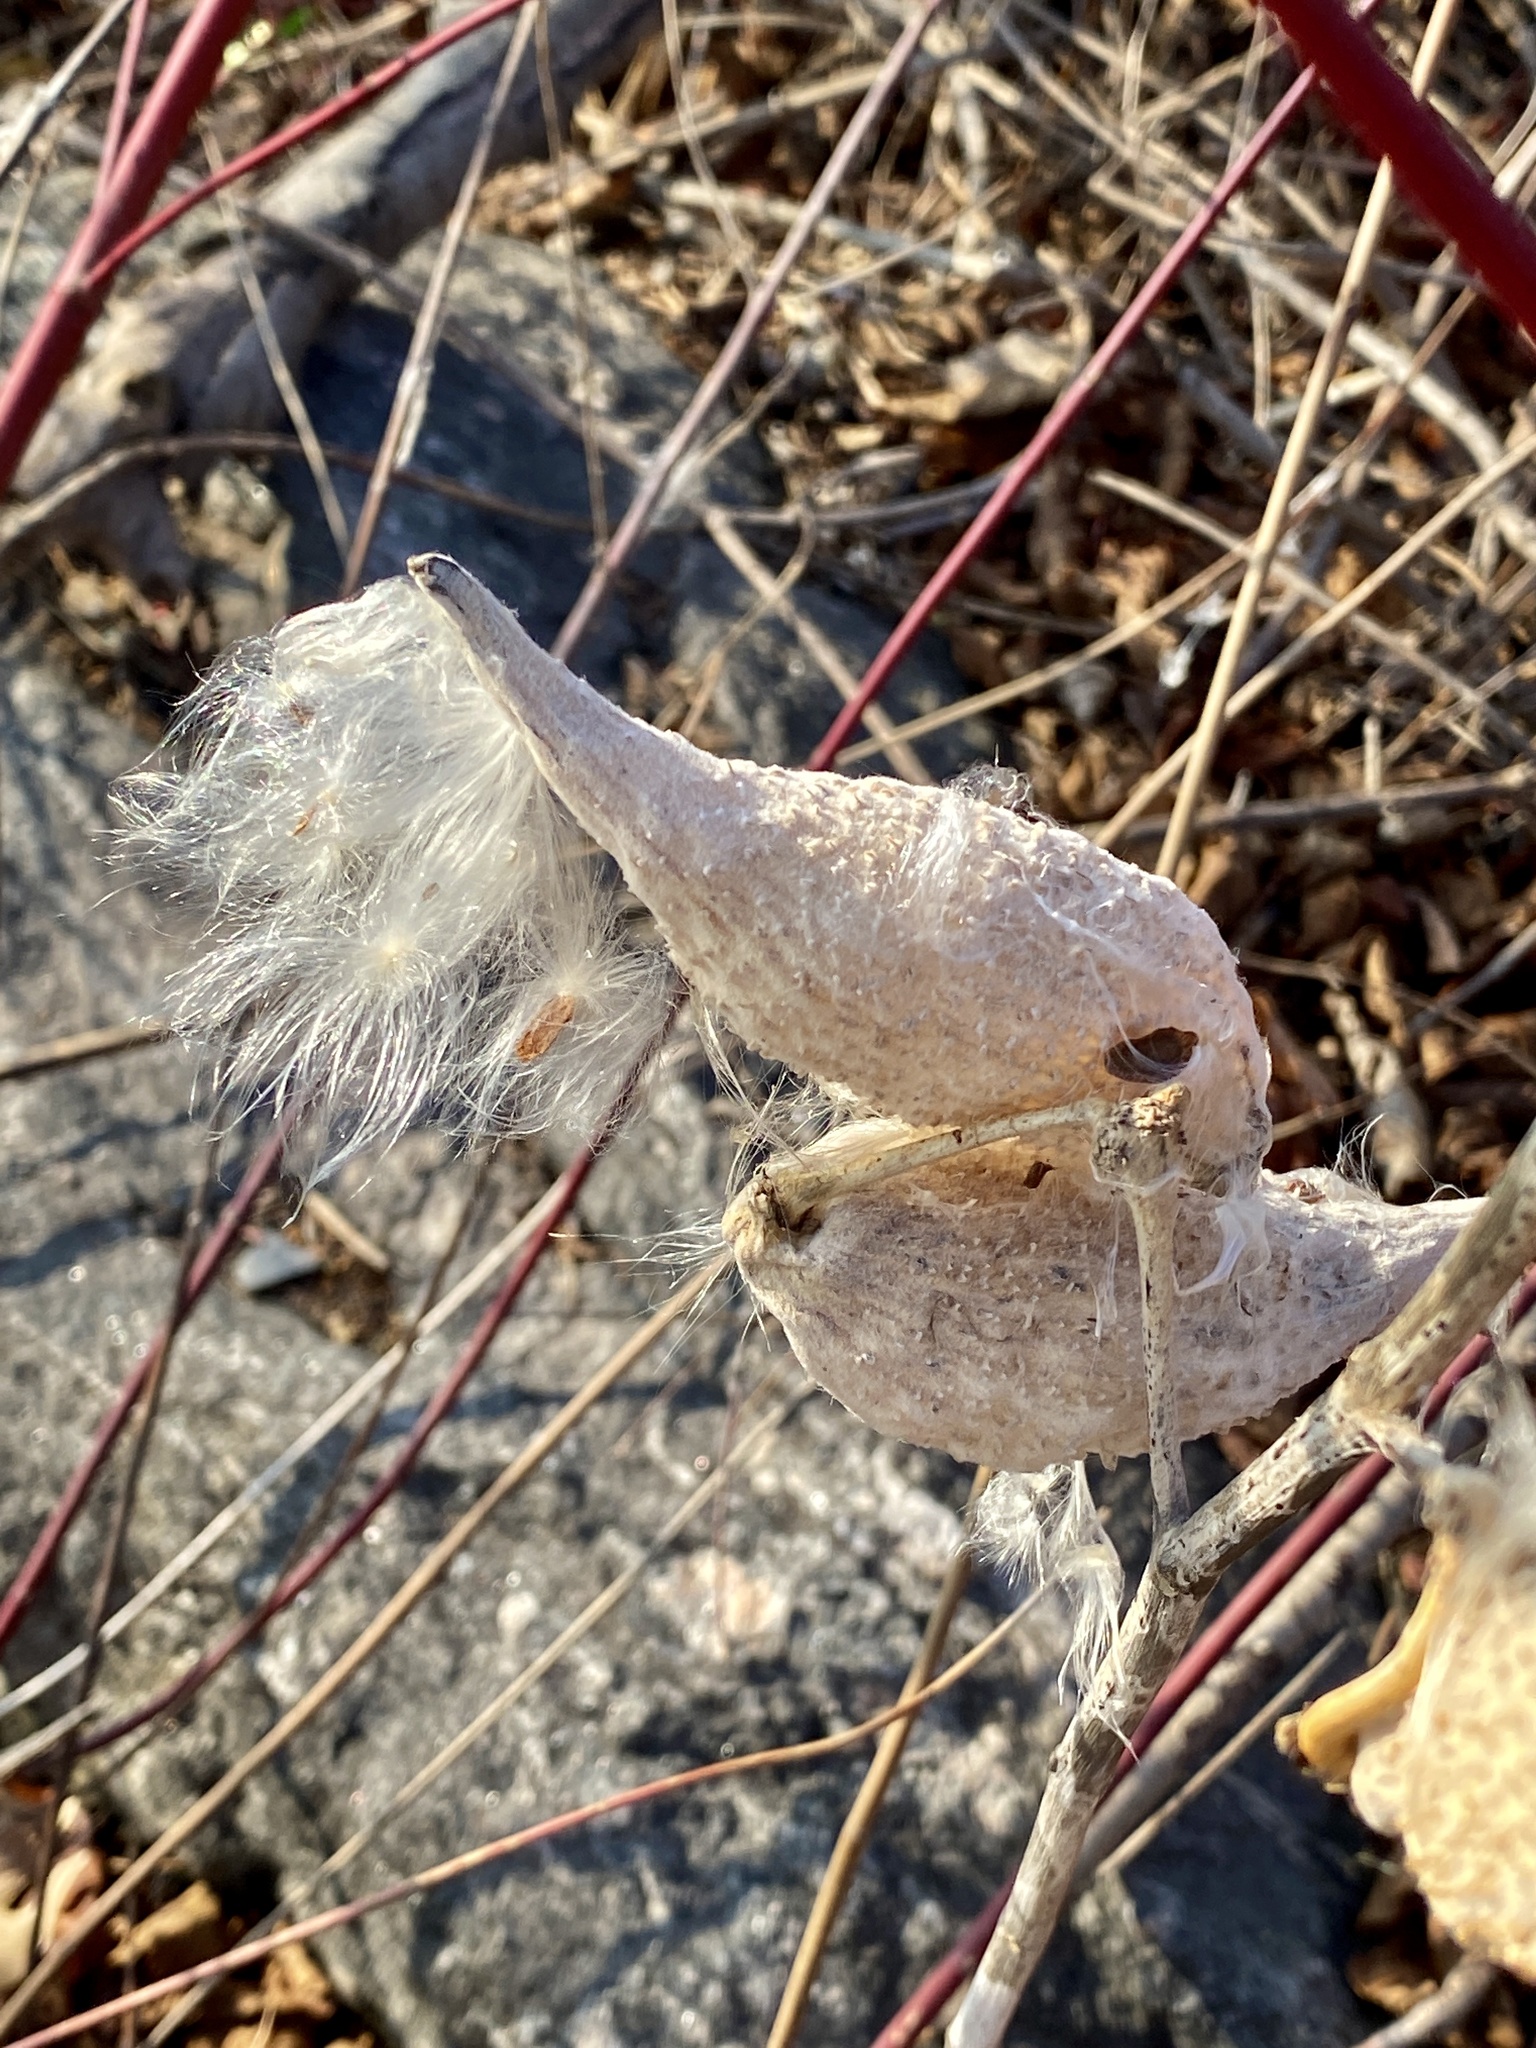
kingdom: Plantae
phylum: Tracheophyta
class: Magnoliopsida
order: Gentianales
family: Apocynaceae
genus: Asclepias
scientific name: Asclepias syriaca
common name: Common milkweed
